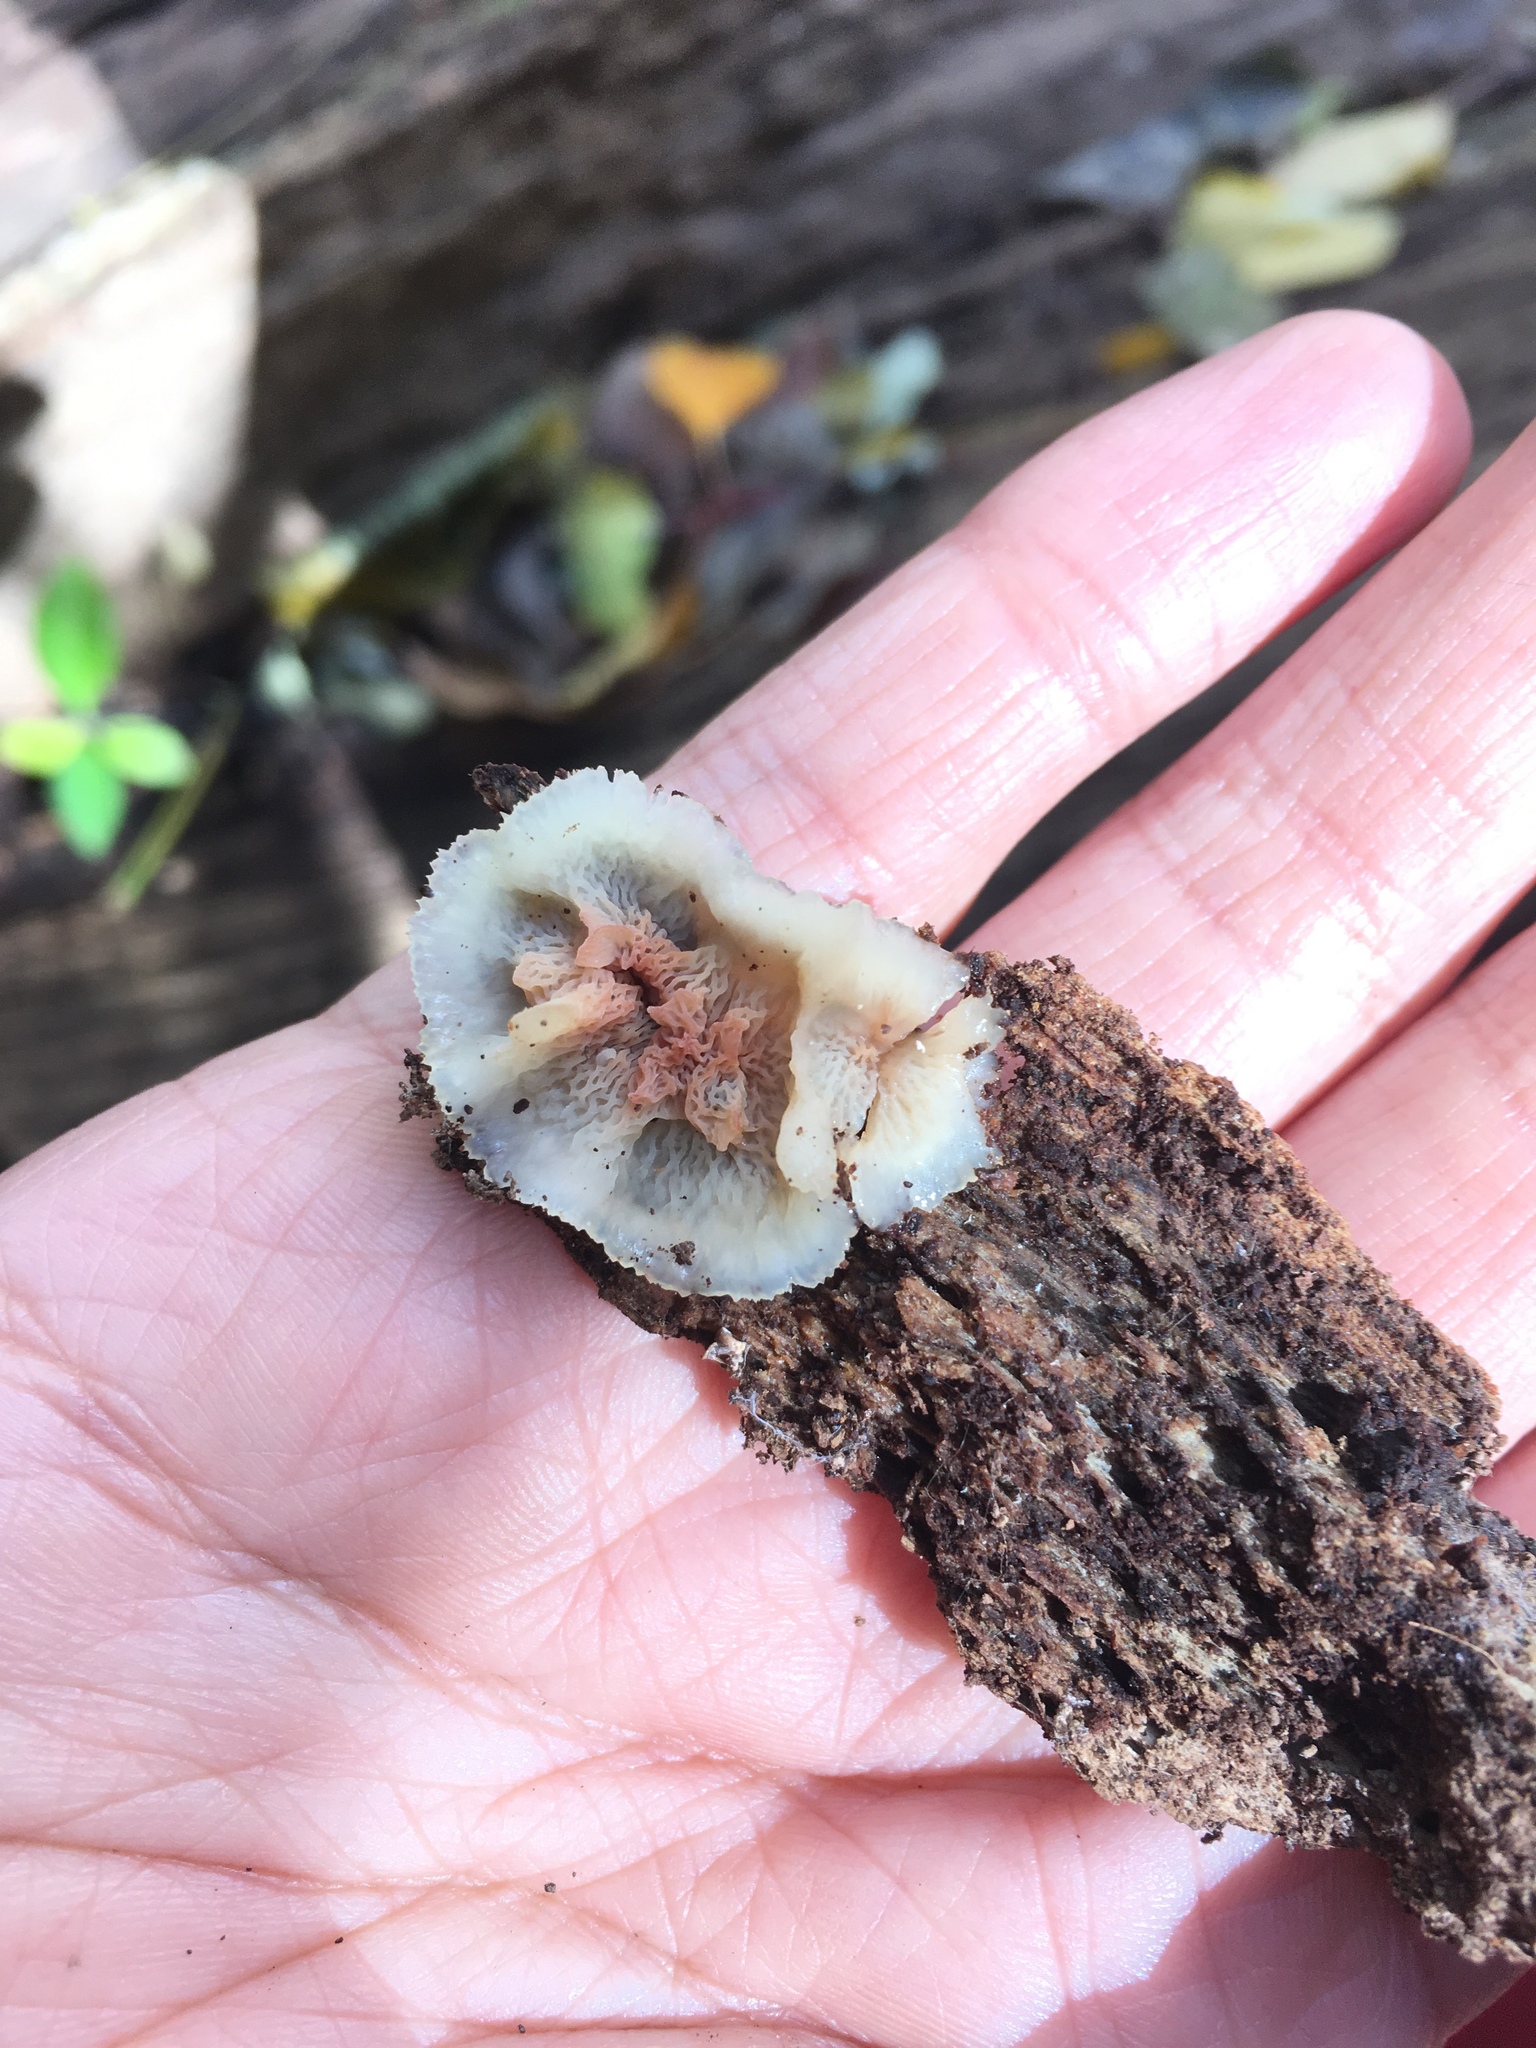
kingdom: Fungi
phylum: Basidiomycota
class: Agaricomycetes
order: Polyporales
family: Meruliaceae
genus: Phlebia
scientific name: Phlebia tremellosa
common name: Jelly rot
